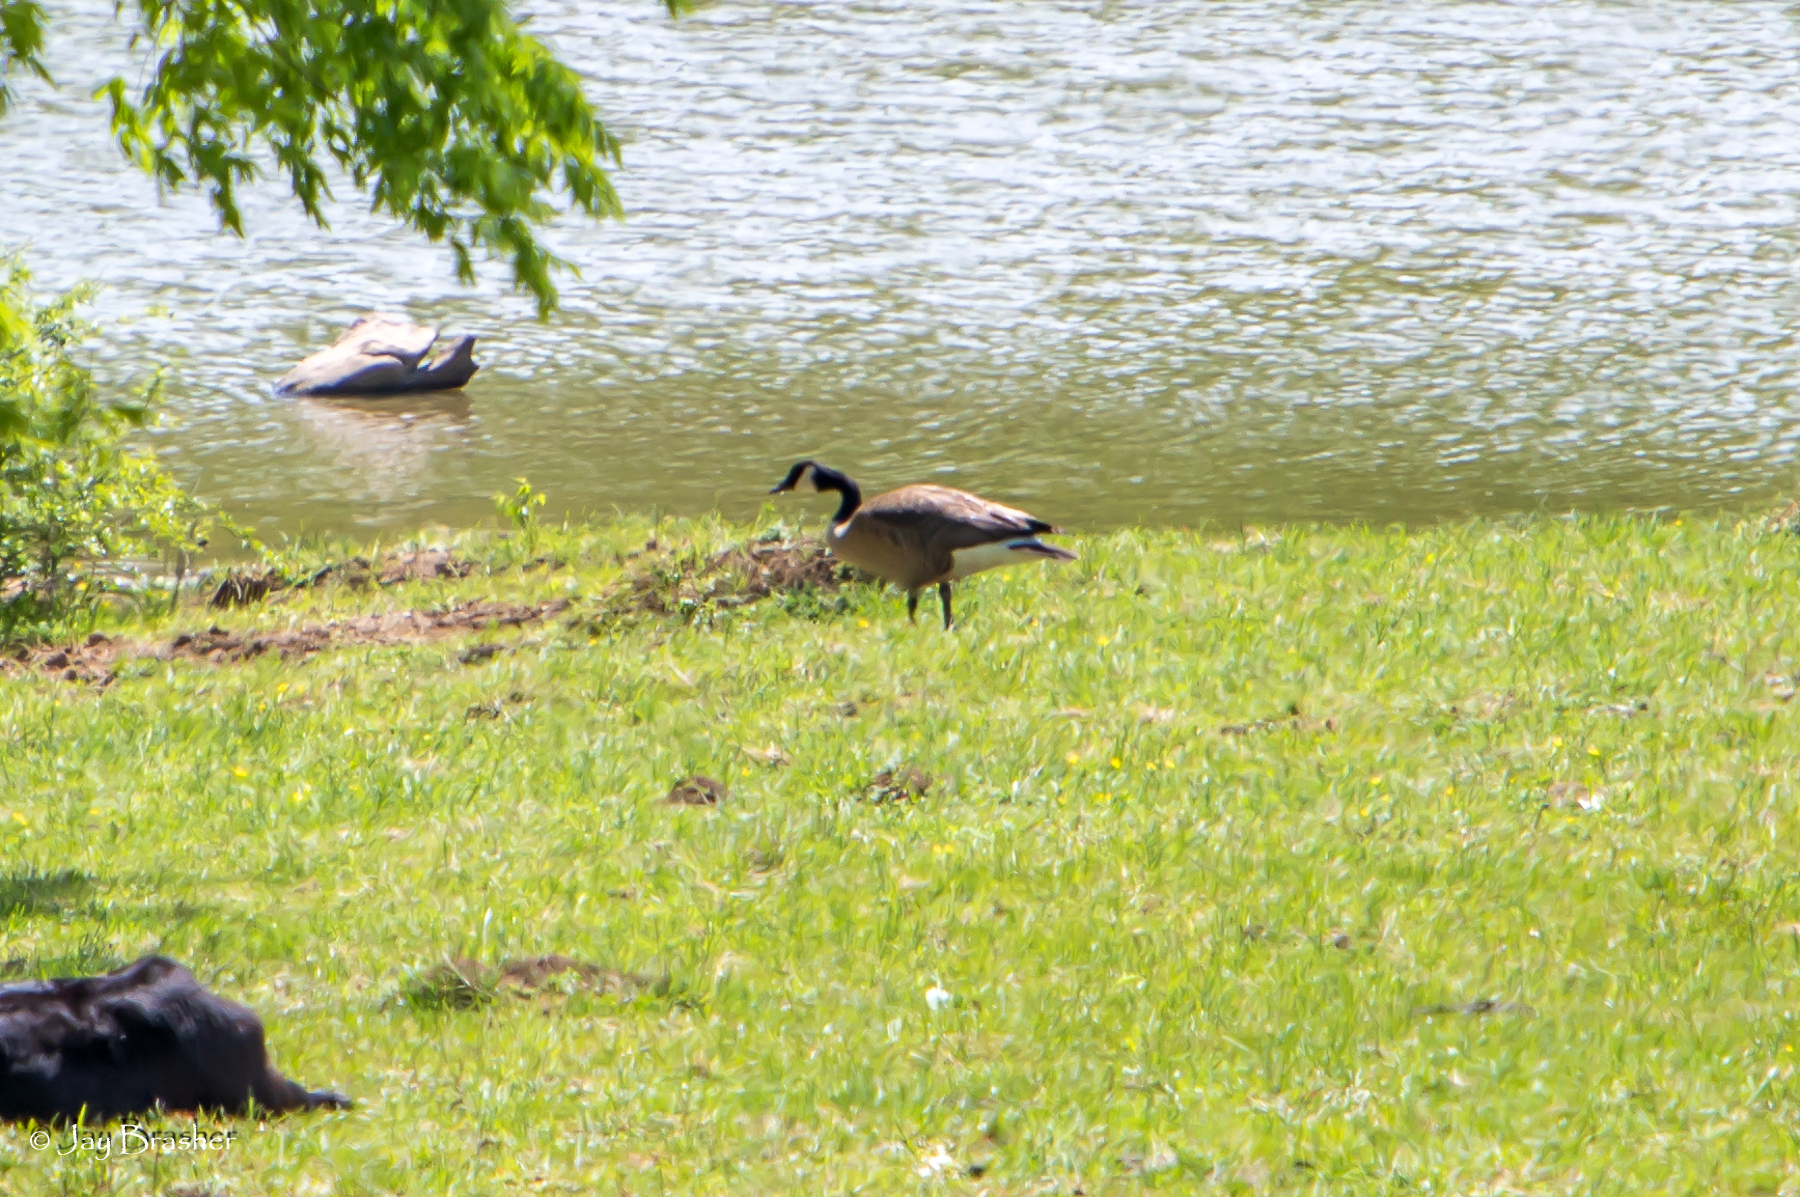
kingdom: Animalia
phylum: Chordata
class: Aves
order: Anseriformes
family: Anatidae
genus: Branta
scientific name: Branta canadensis
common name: Canada goose
